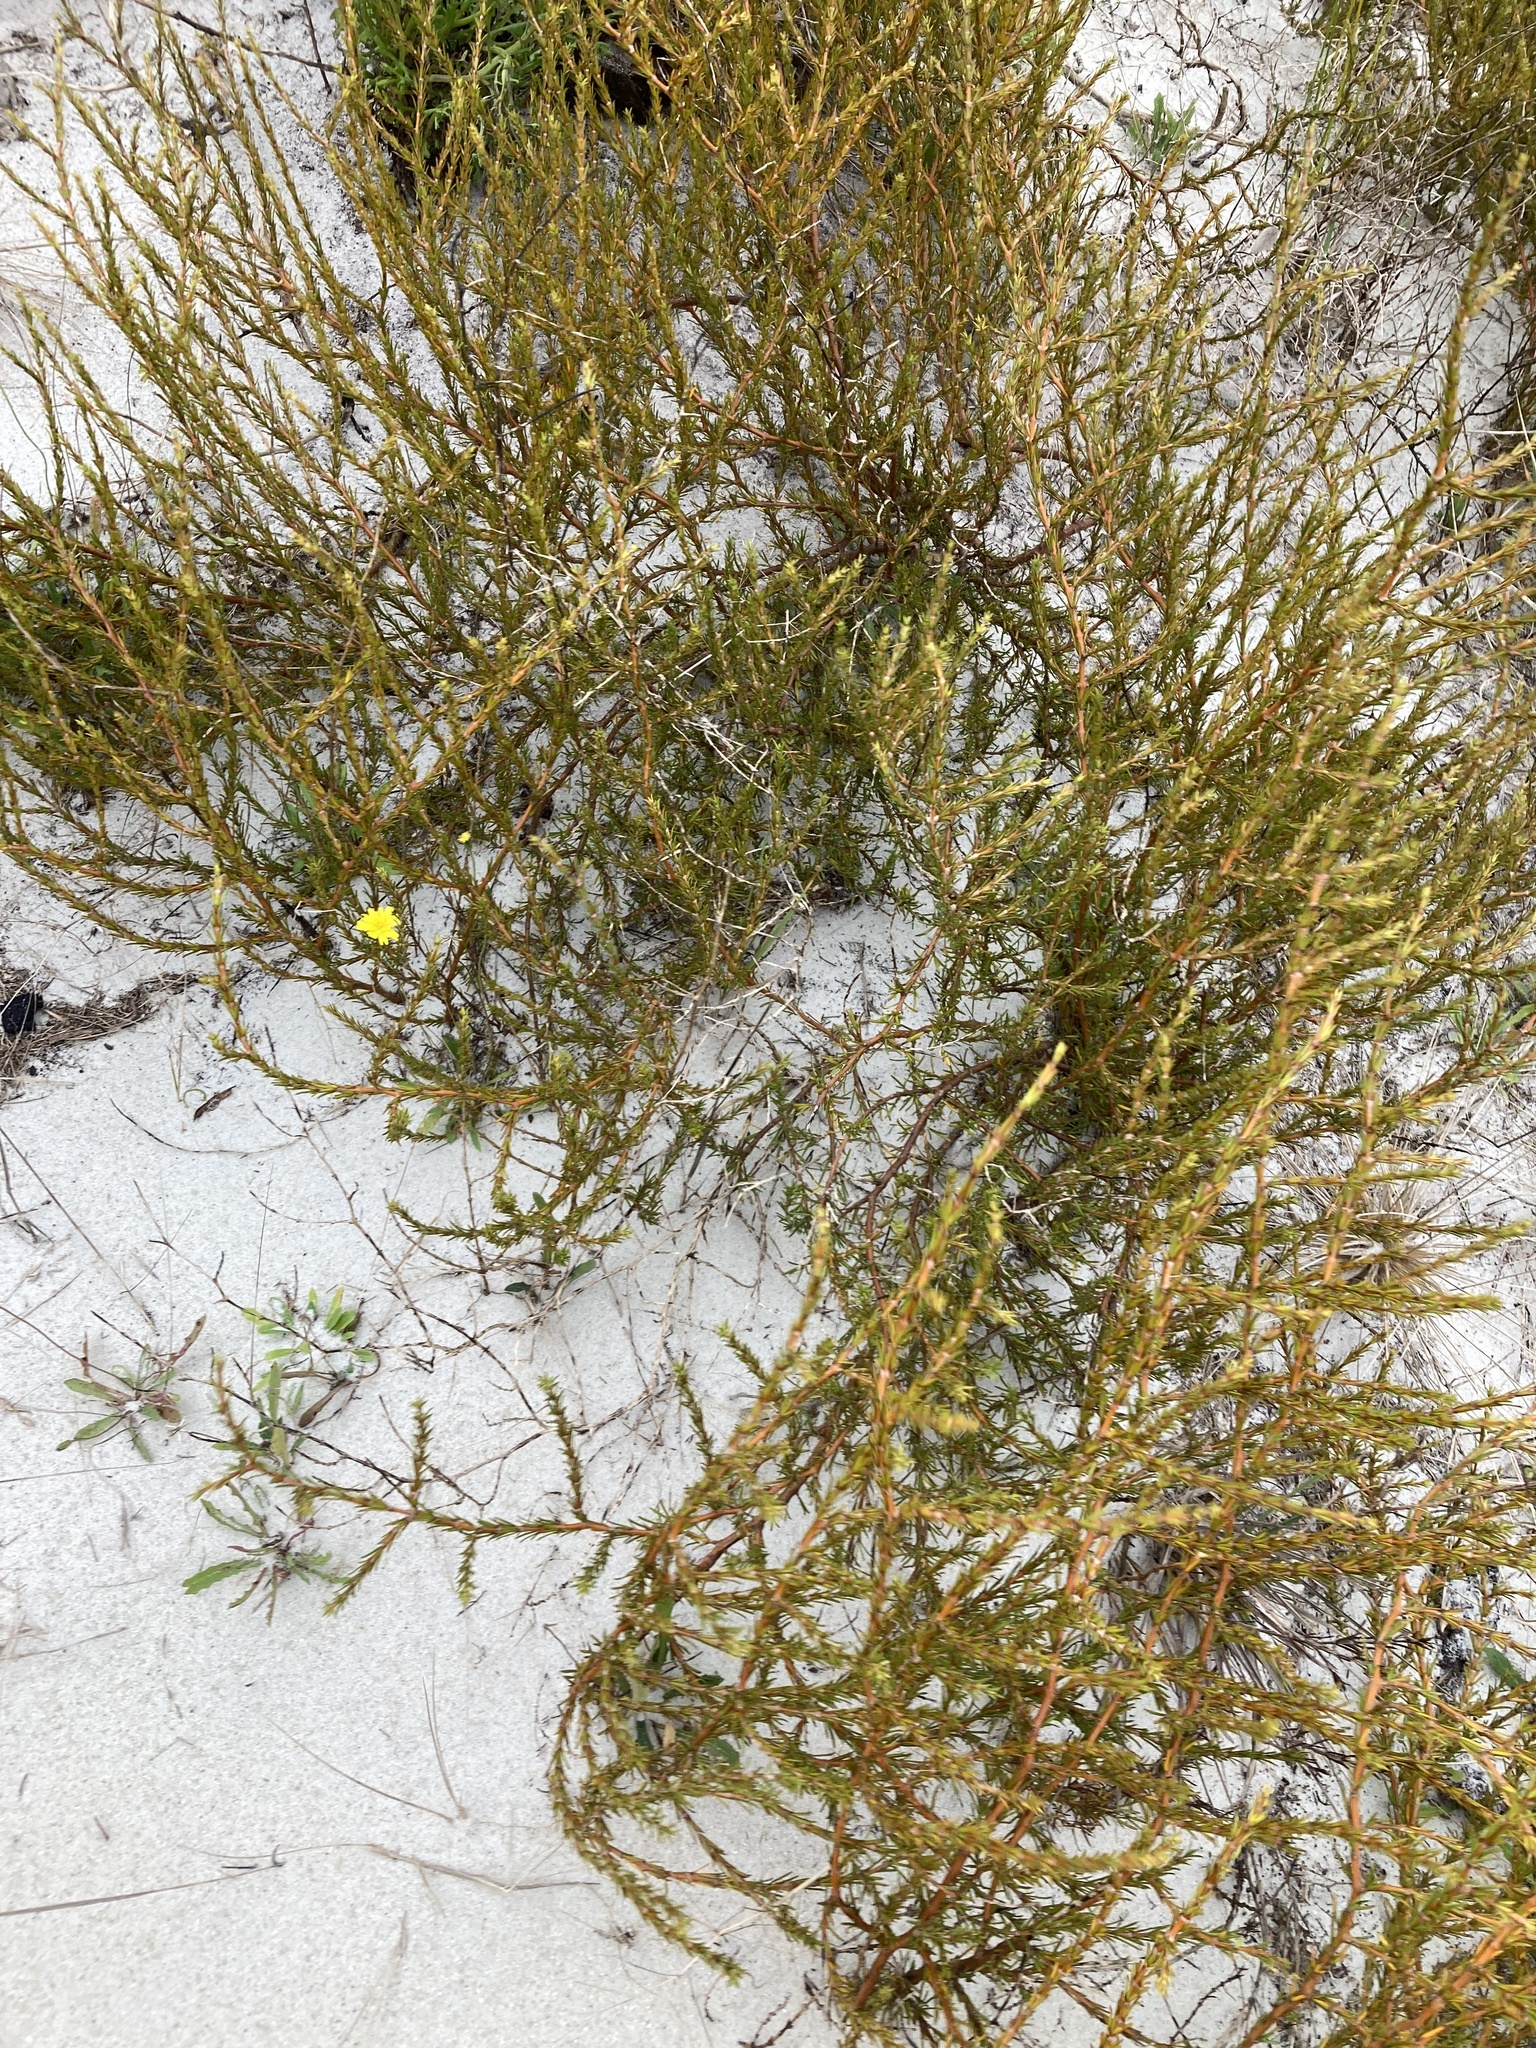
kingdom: Plantae
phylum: Tracheophyta
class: Magnoliopsida
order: Gentianales
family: Rubiaceae
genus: Coprosma
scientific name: Coprosma acerosa
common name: Sand coprosma
